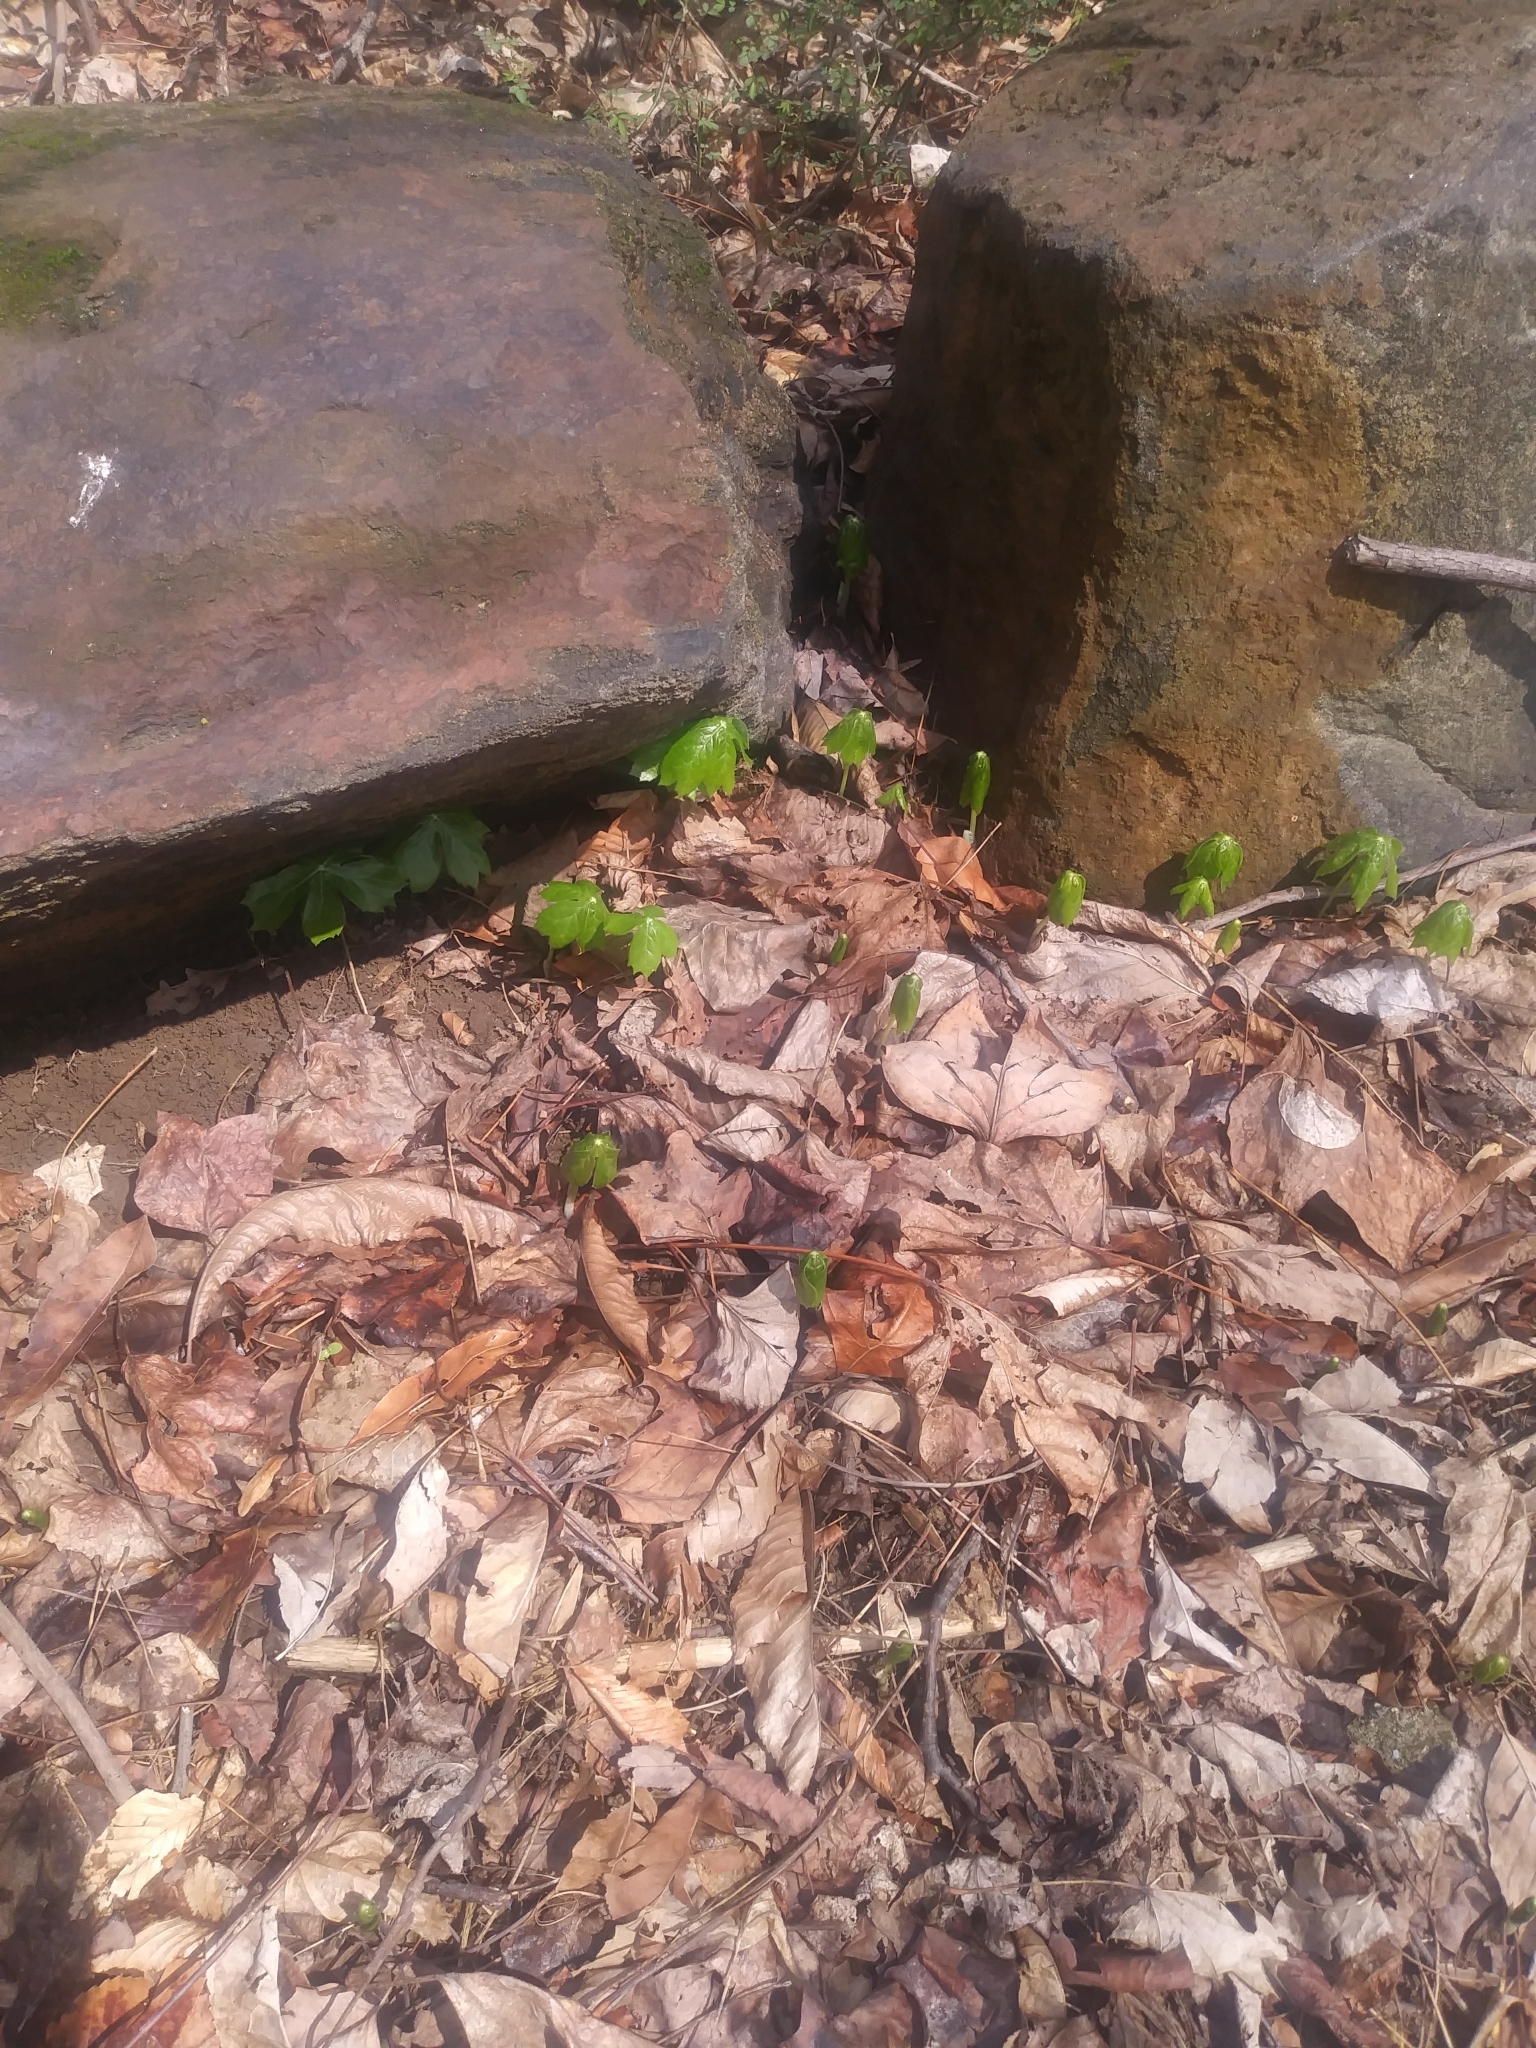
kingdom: Plantae
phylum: Tracheophyta
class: Magnoliopsida
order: Ranunculales
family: Berberidaceae
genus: Podophyllum
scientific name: Podophyllum peltatum
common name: Wild mandrake
